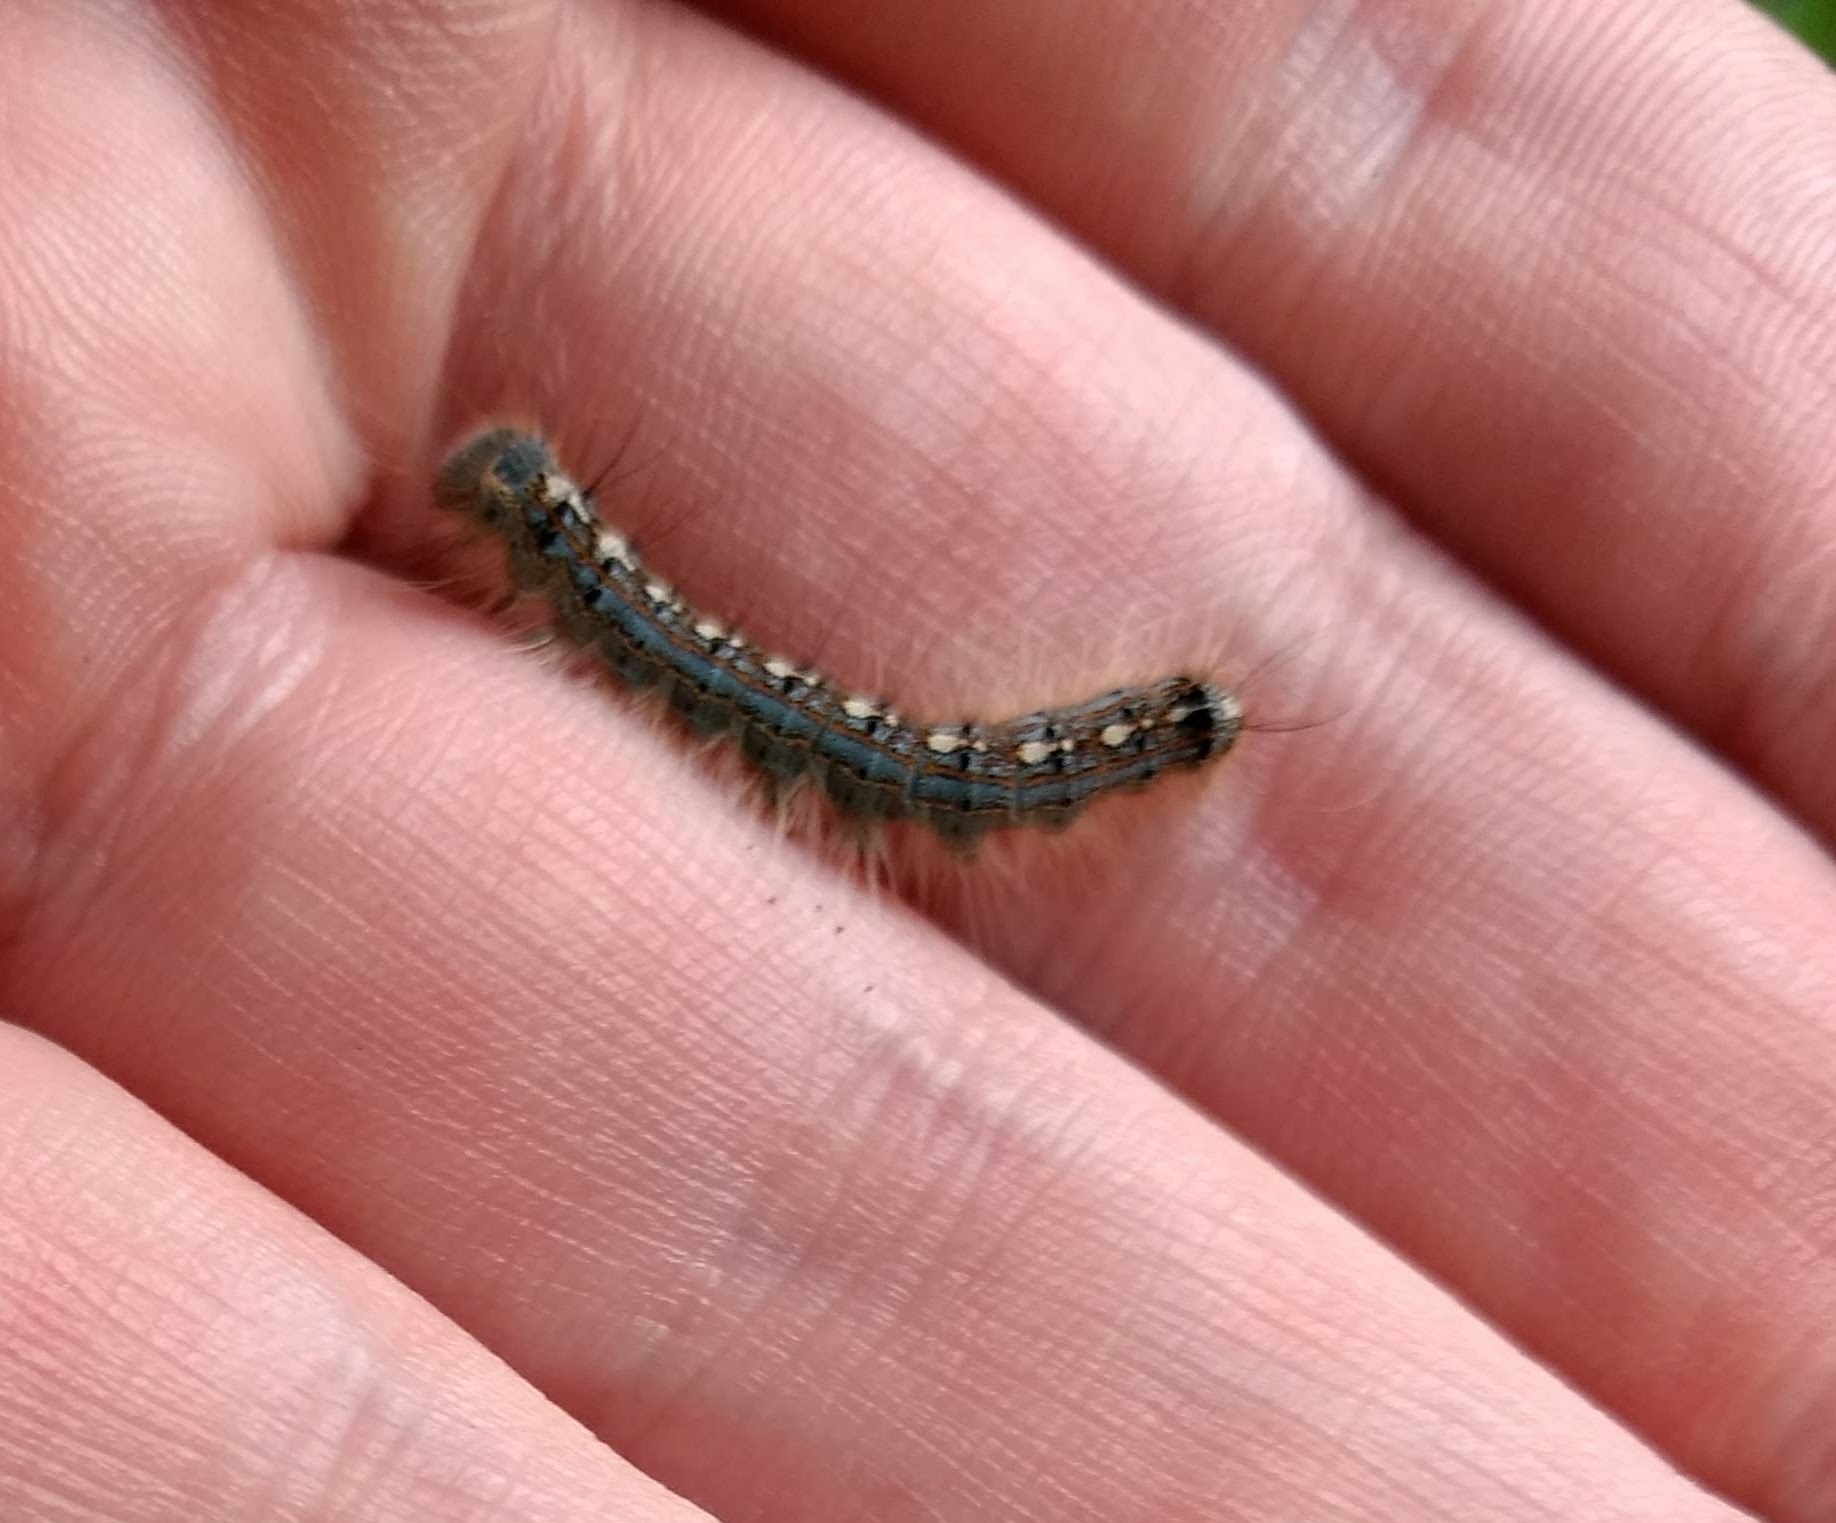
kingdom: Animalia
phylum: Arthropoda
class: Insecta
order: Lepidoptera
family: Lasiocampidae
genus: Malacosoma
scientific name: Malacosoma disstria
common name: Forest tent caterpillar
